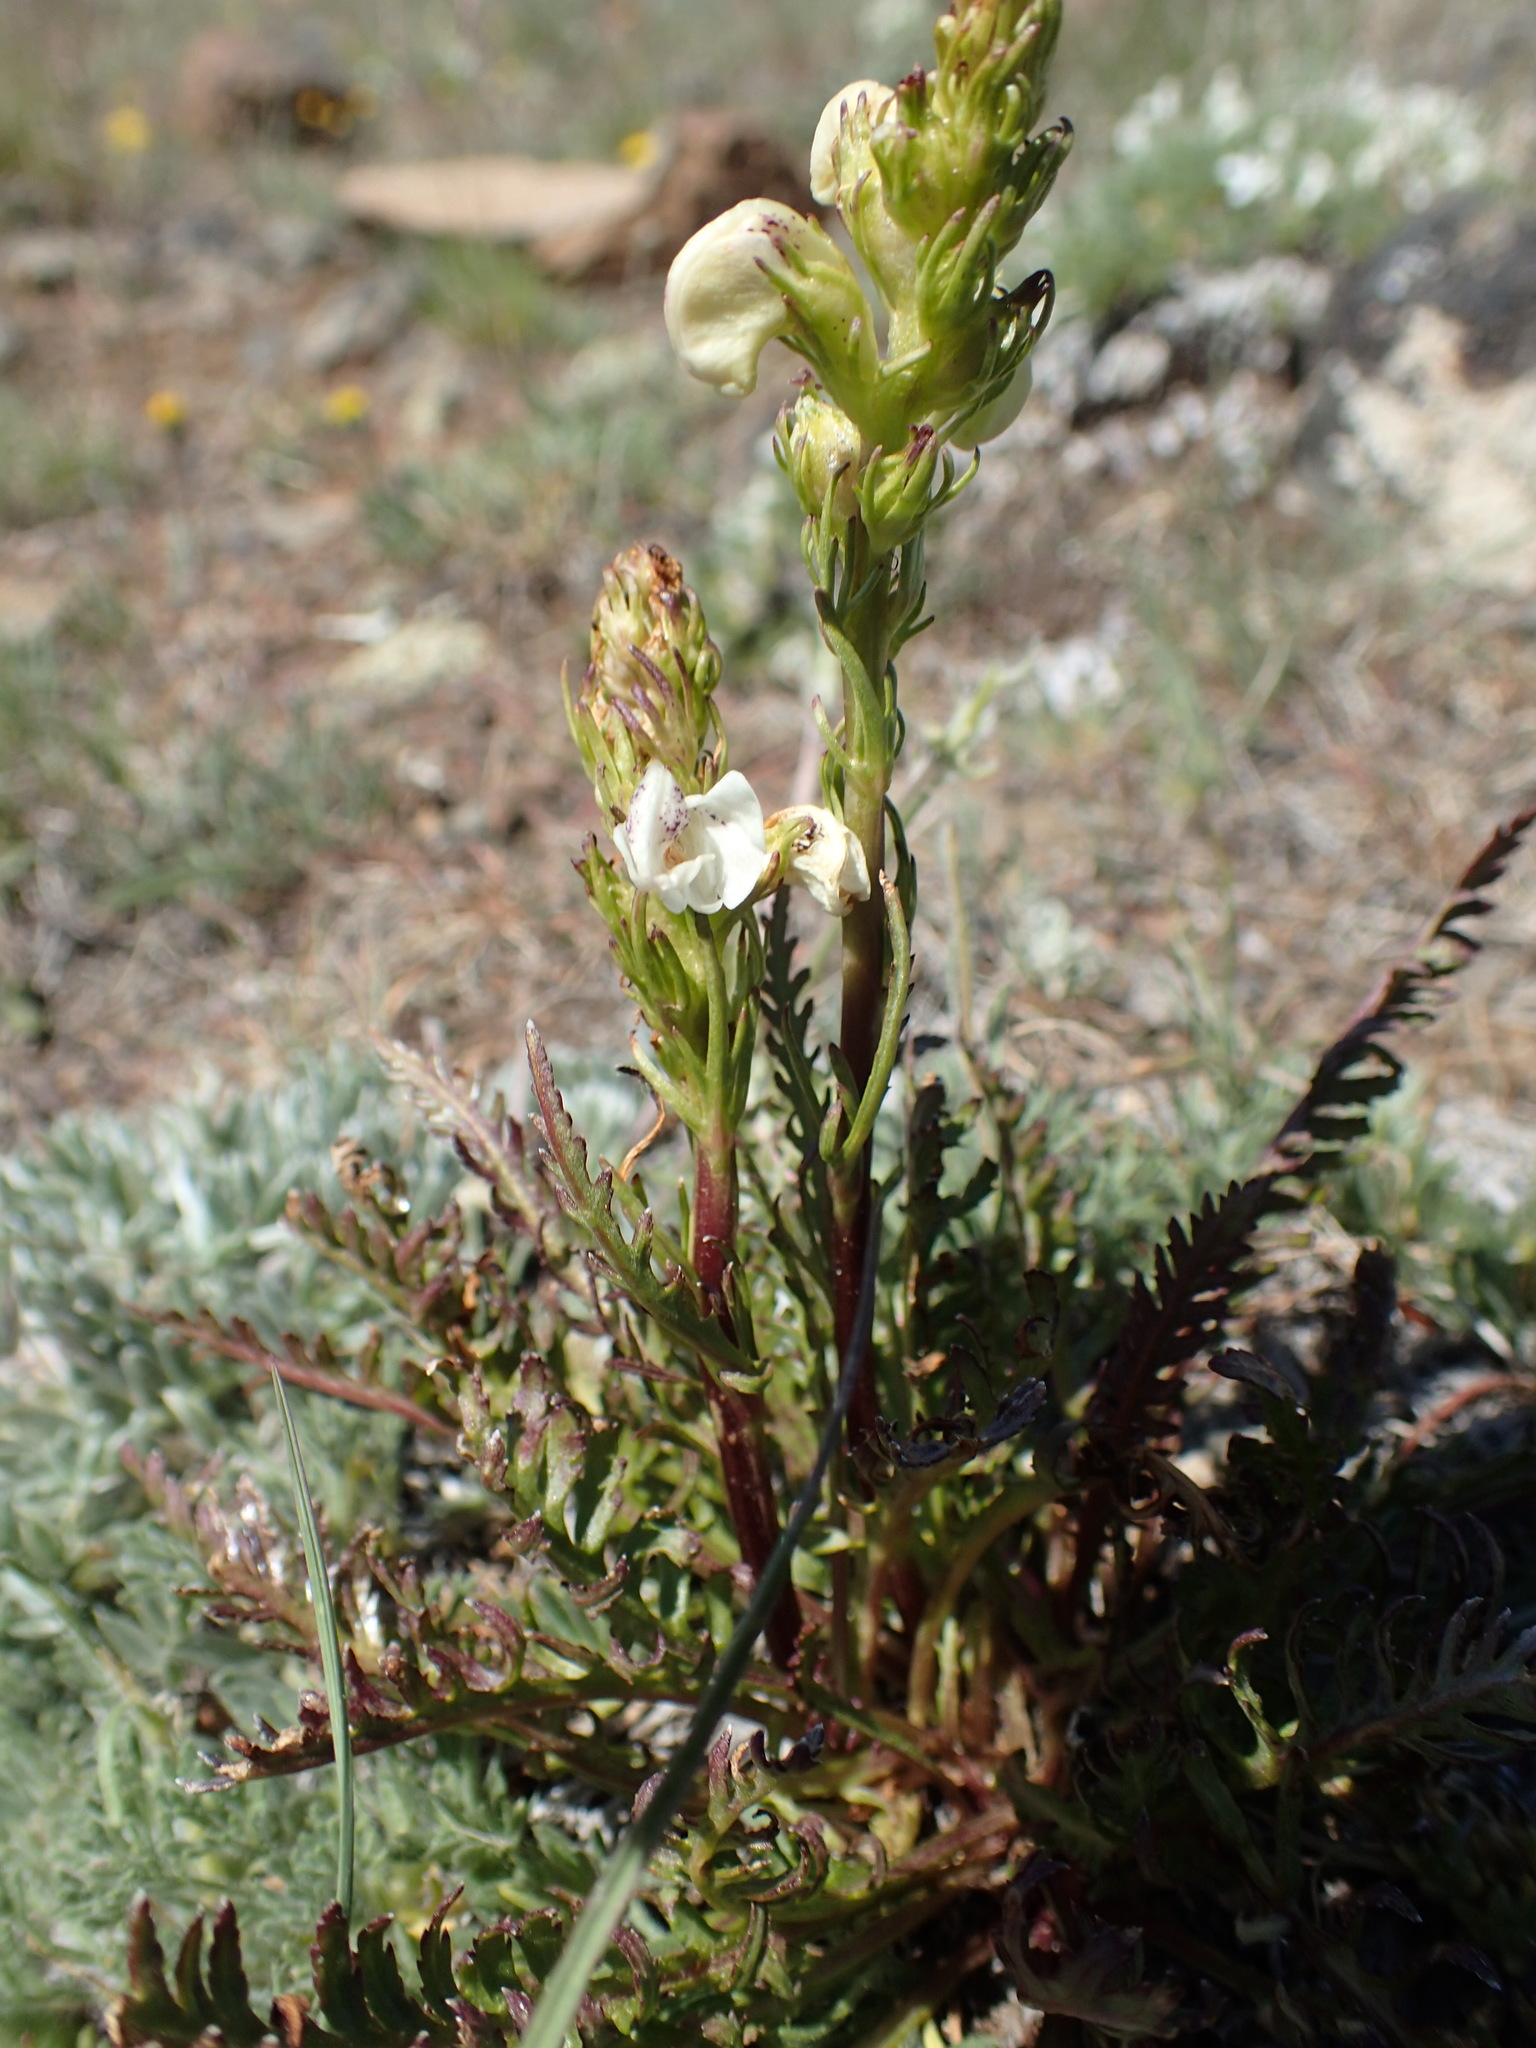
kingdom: Plantae
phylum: Tracheophyta
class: Magnoliopsida
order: Lamiales
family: Orobanchaceae
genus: Pedicularis
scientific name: Pedicularis contorta
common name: Coiled lousewort
